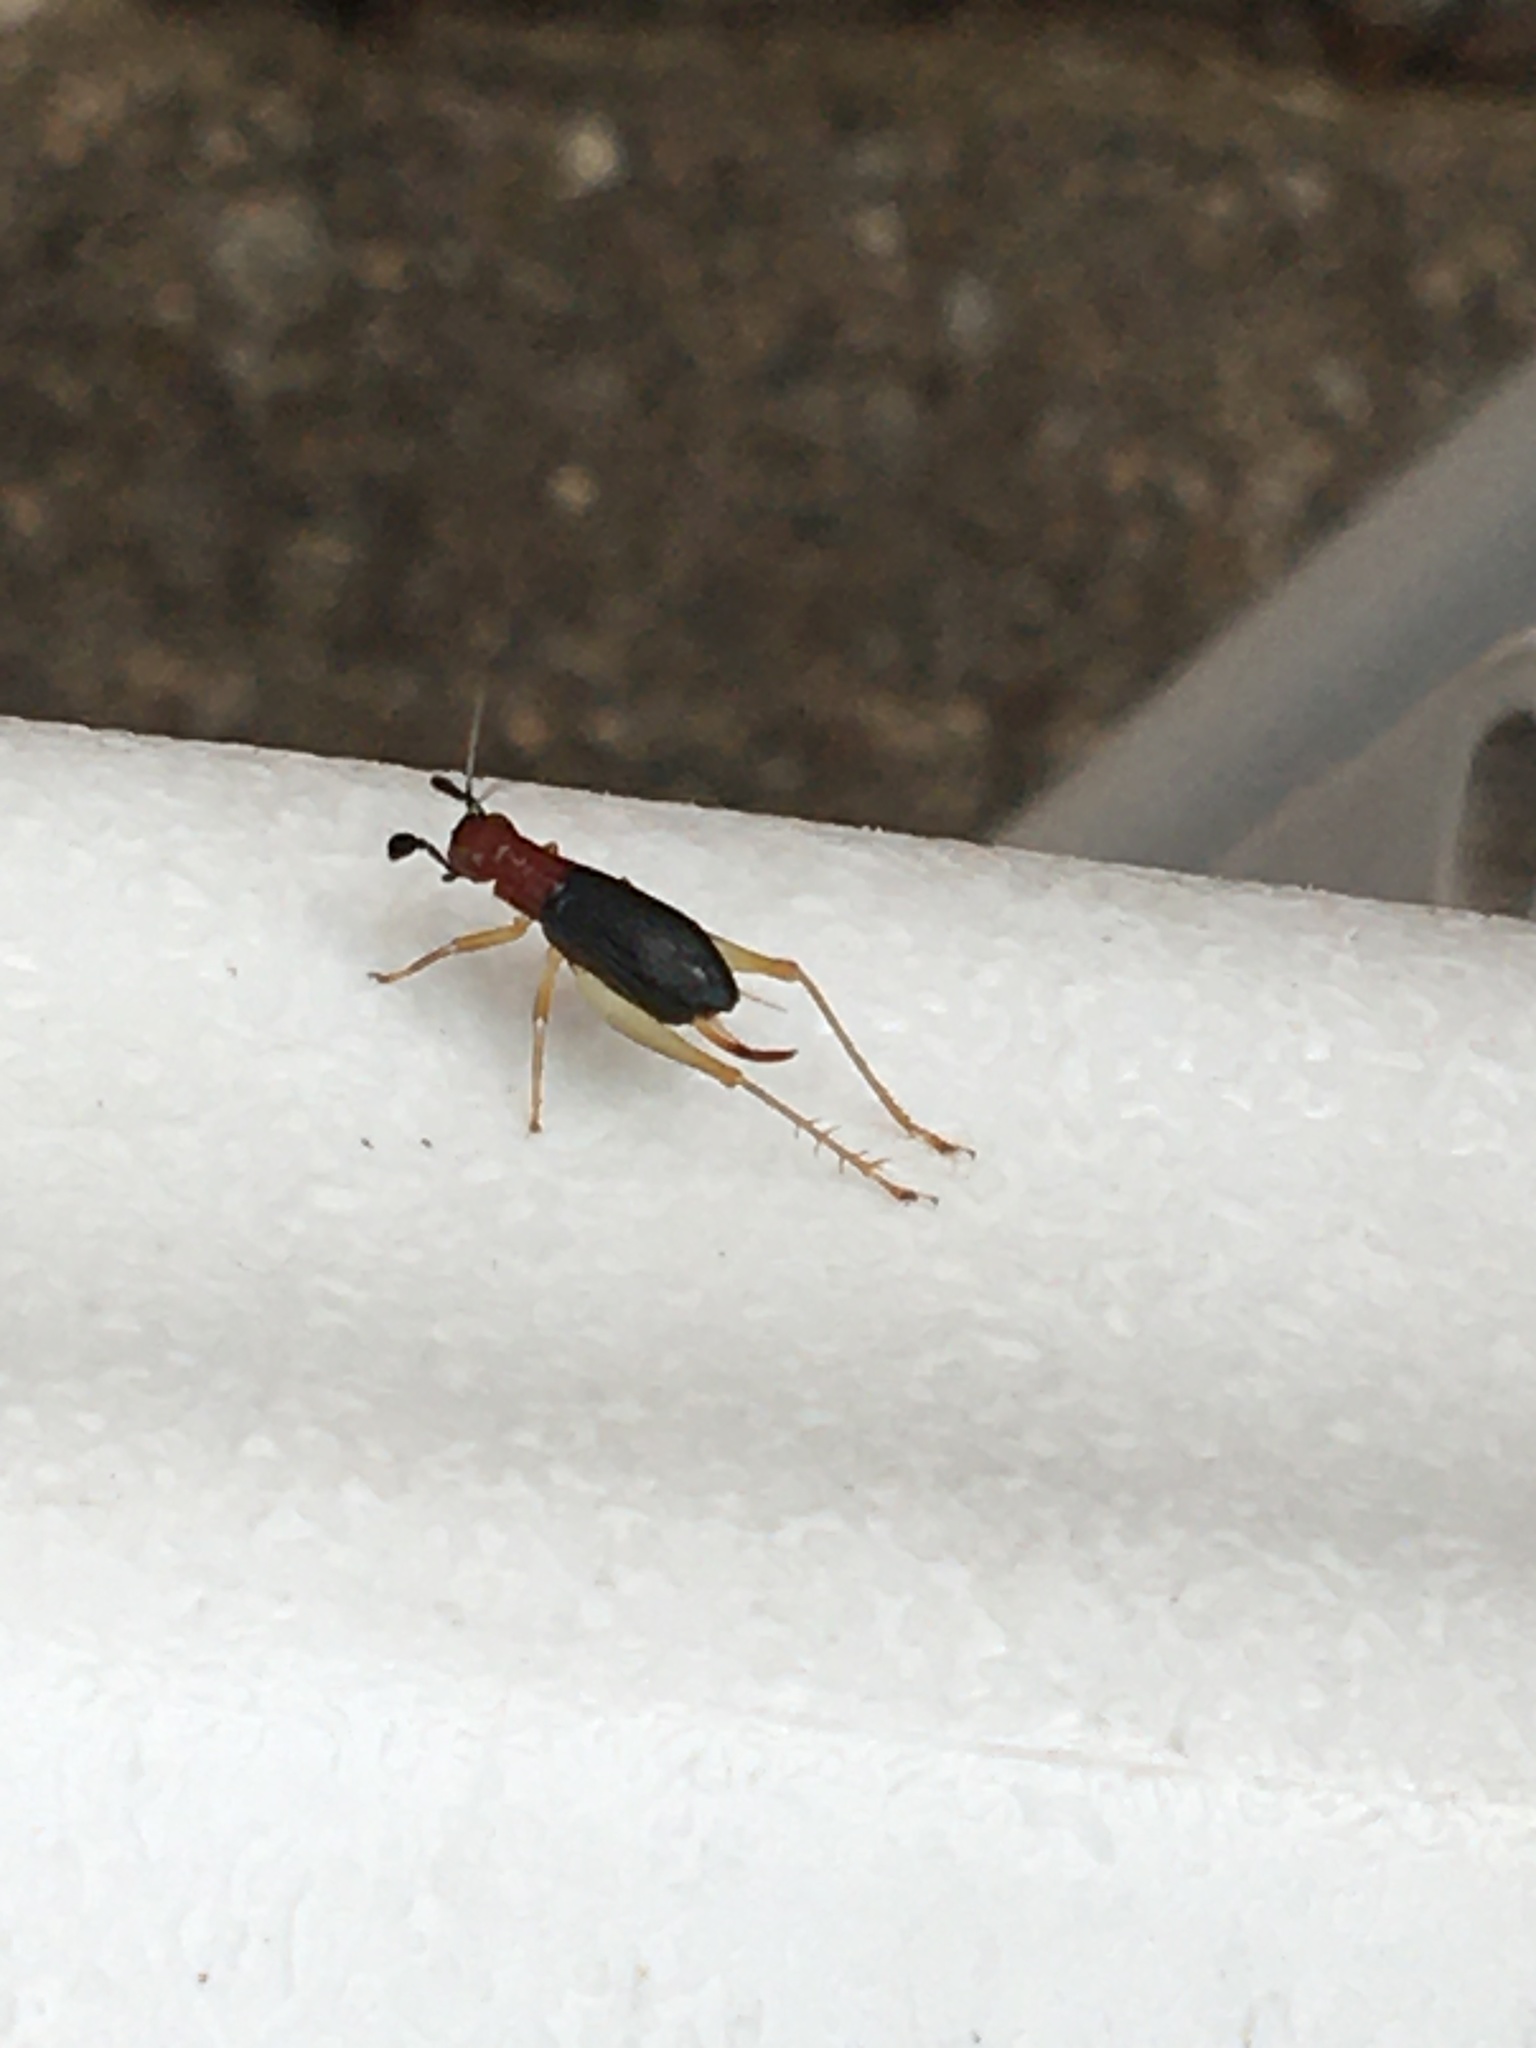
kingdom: Animalia
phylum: Arthropoda
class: Insecta
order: Orthoptera
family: Trigonidiidae
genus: Phyllopalpus
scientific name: Phyllopalpus pulchellus
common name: Handsome trig
